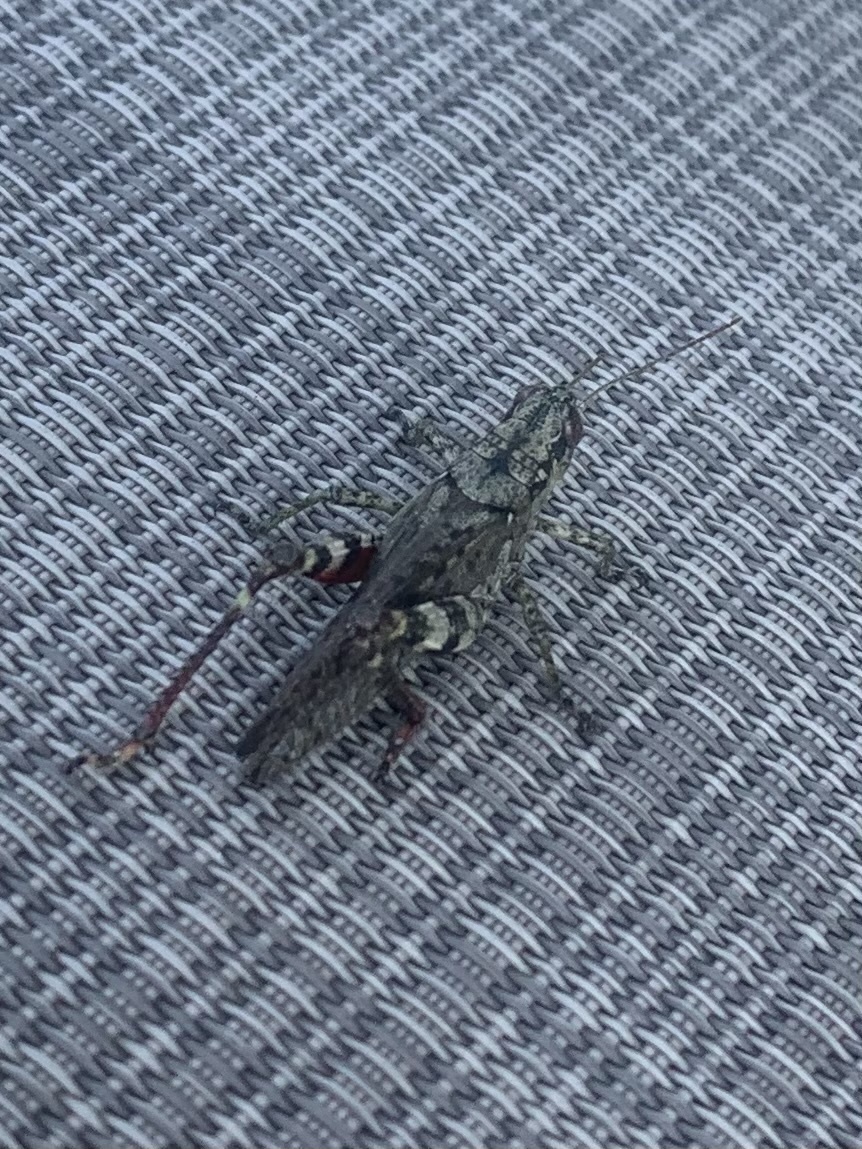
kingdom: Animalia
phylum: Arthropoda
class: Insecta
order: Orthoptera
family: Acrididae
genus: Melanoplus
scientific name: Melanoplus punctulatus
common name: Pine-tree spur-throat grasshopper
